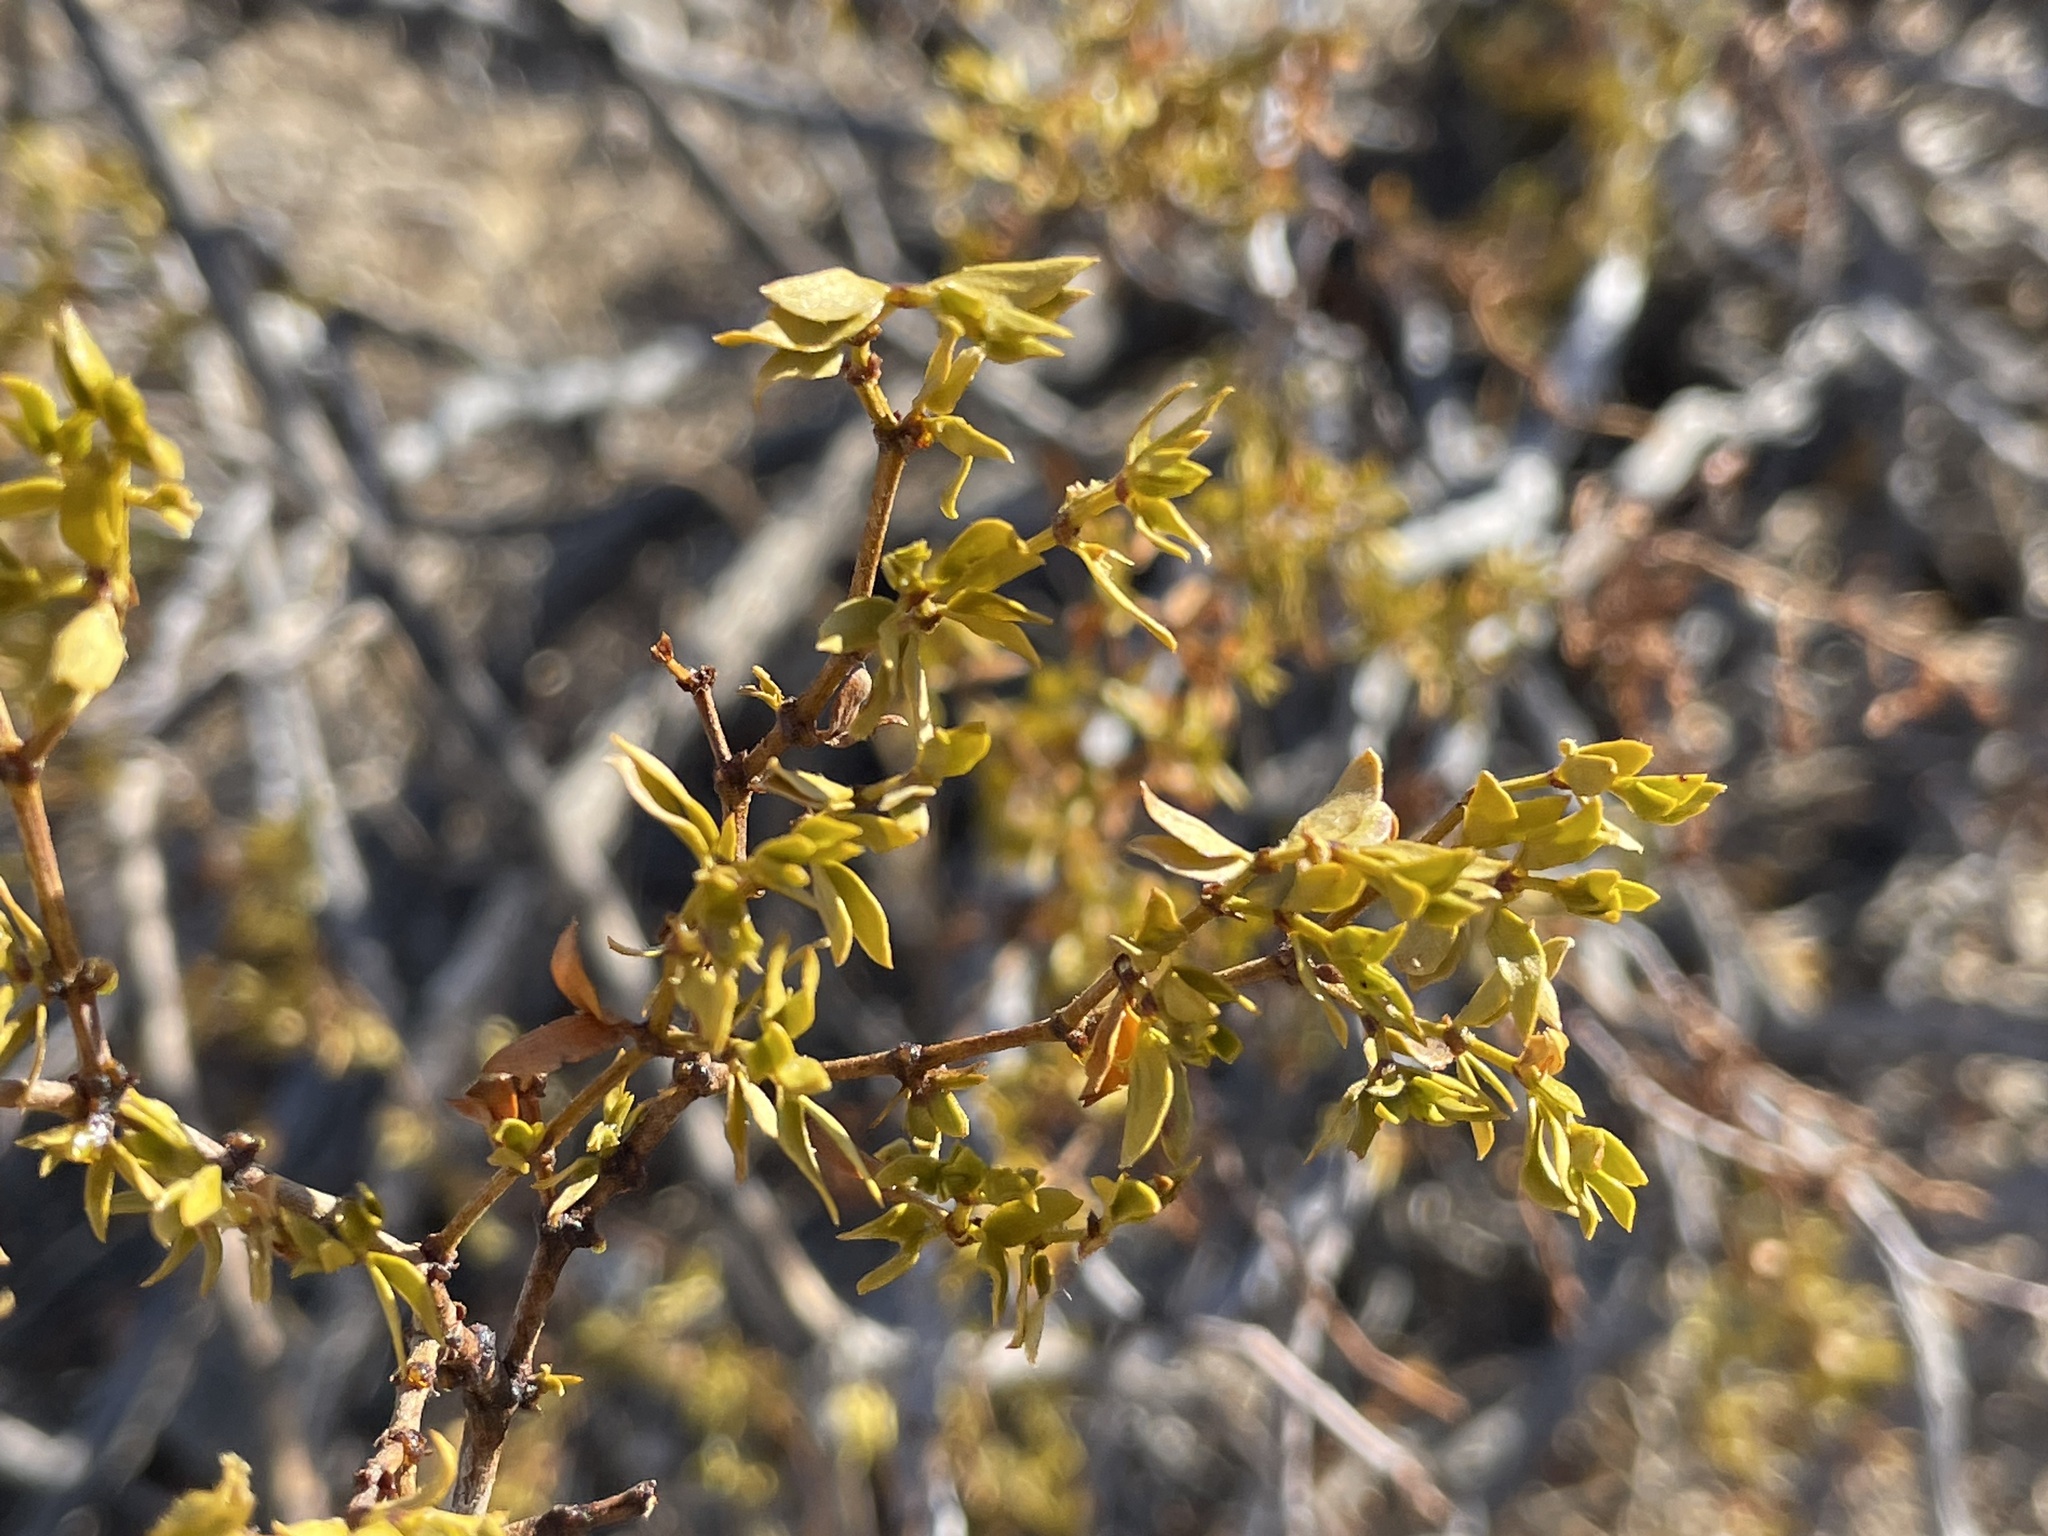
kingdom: Plantae
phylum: Tracheophyta
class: Magnoliopsida
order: Zygophyllales
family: Zygophyllaceae
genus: Larrea
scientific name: Larrea tridentata
